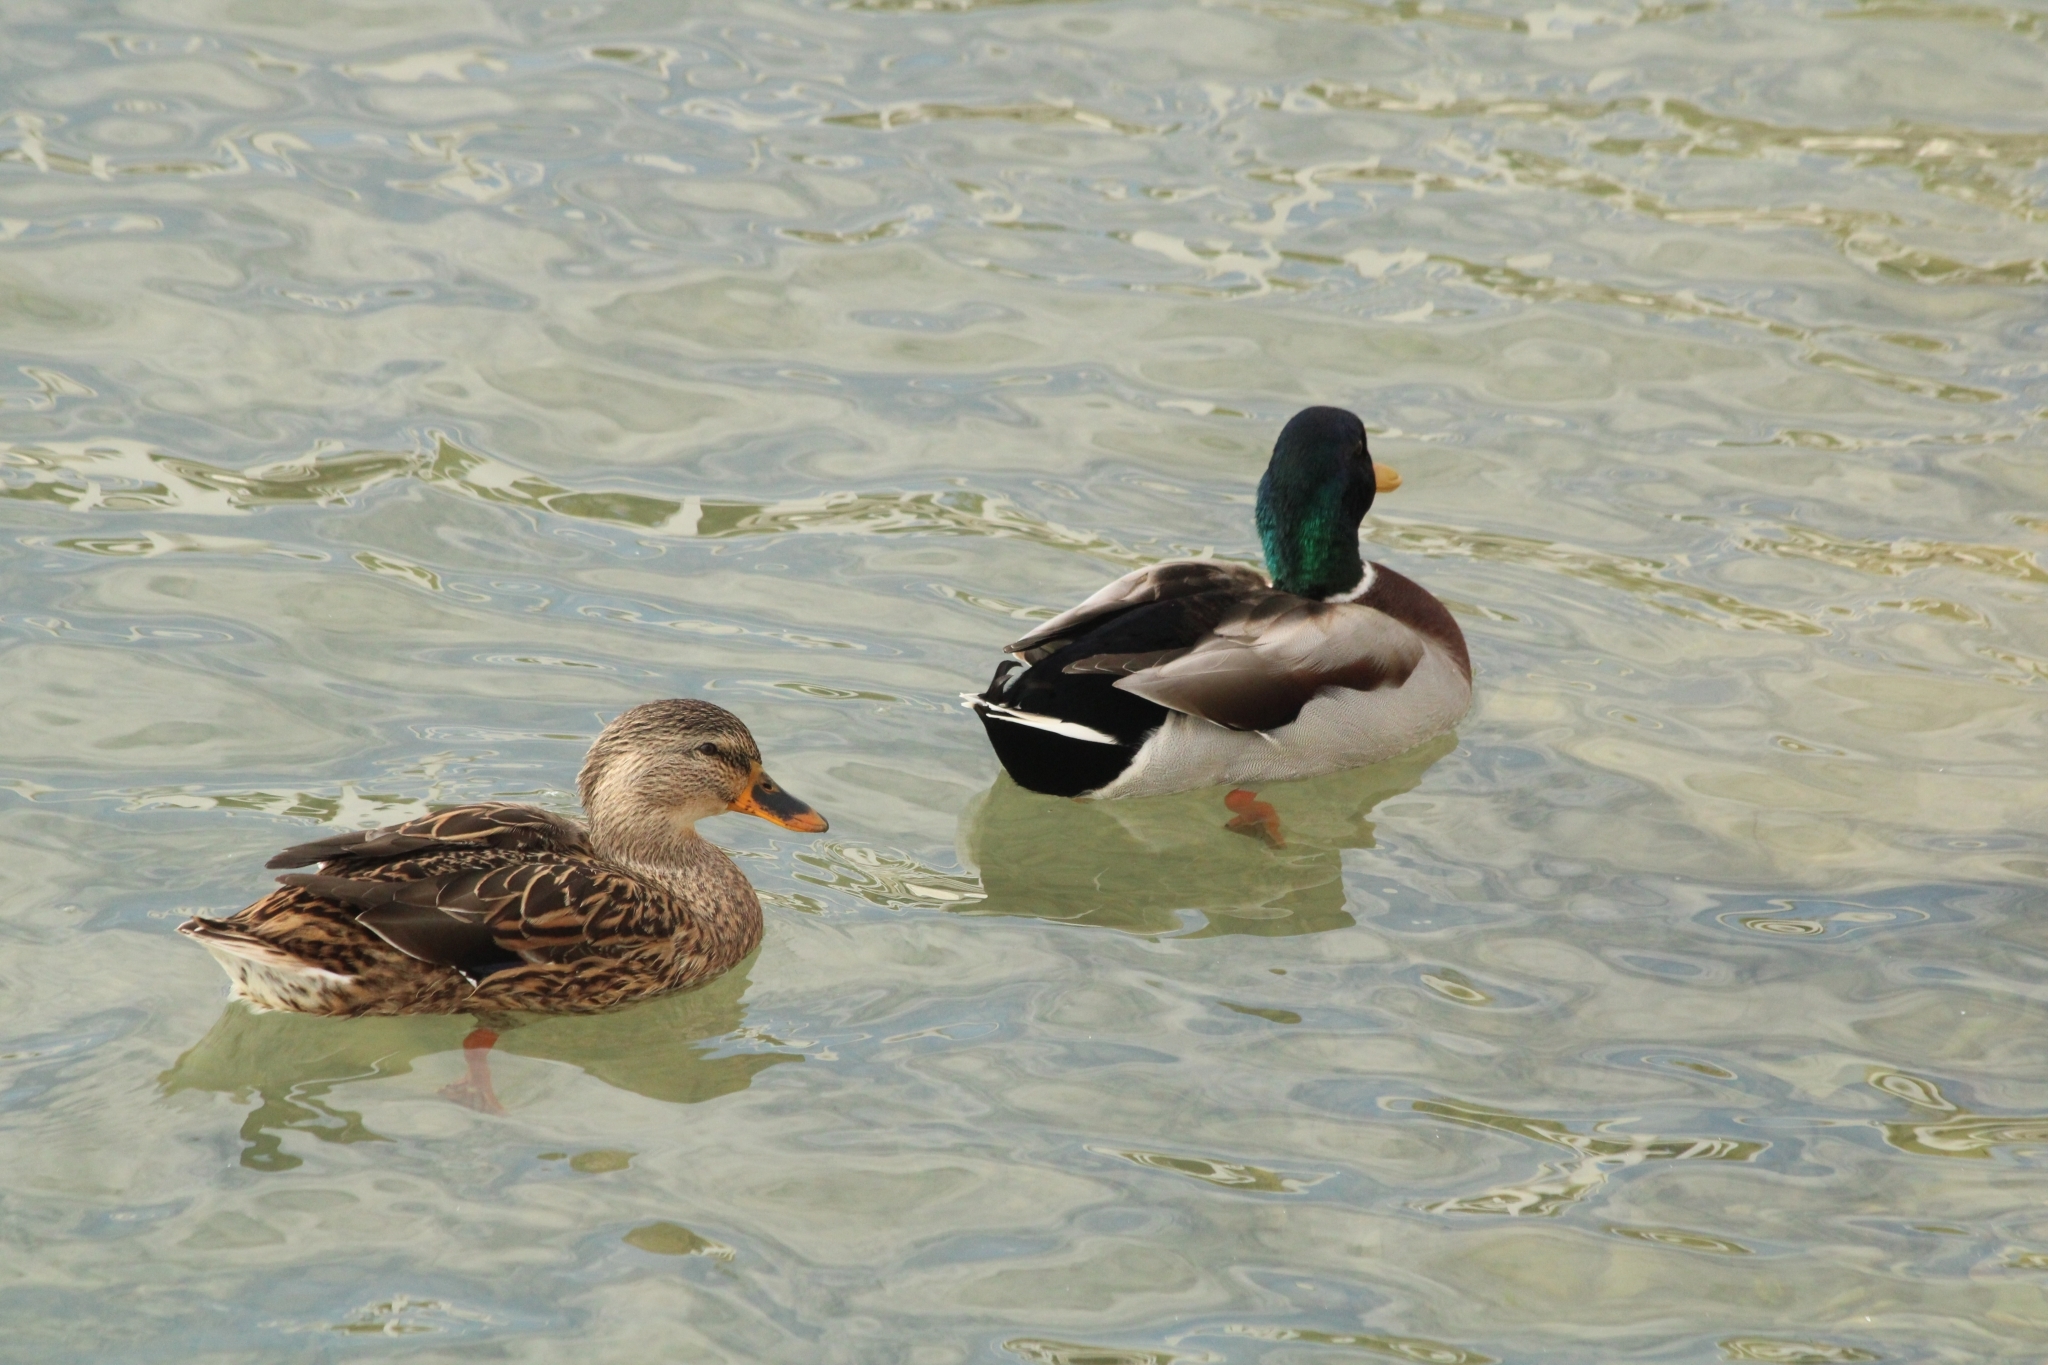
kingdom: Animalia
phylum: Chordata
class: Aves
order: Anseriformes
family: Anatidae
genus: Anas
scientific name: Anas platyrhynchos
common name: Mallard
